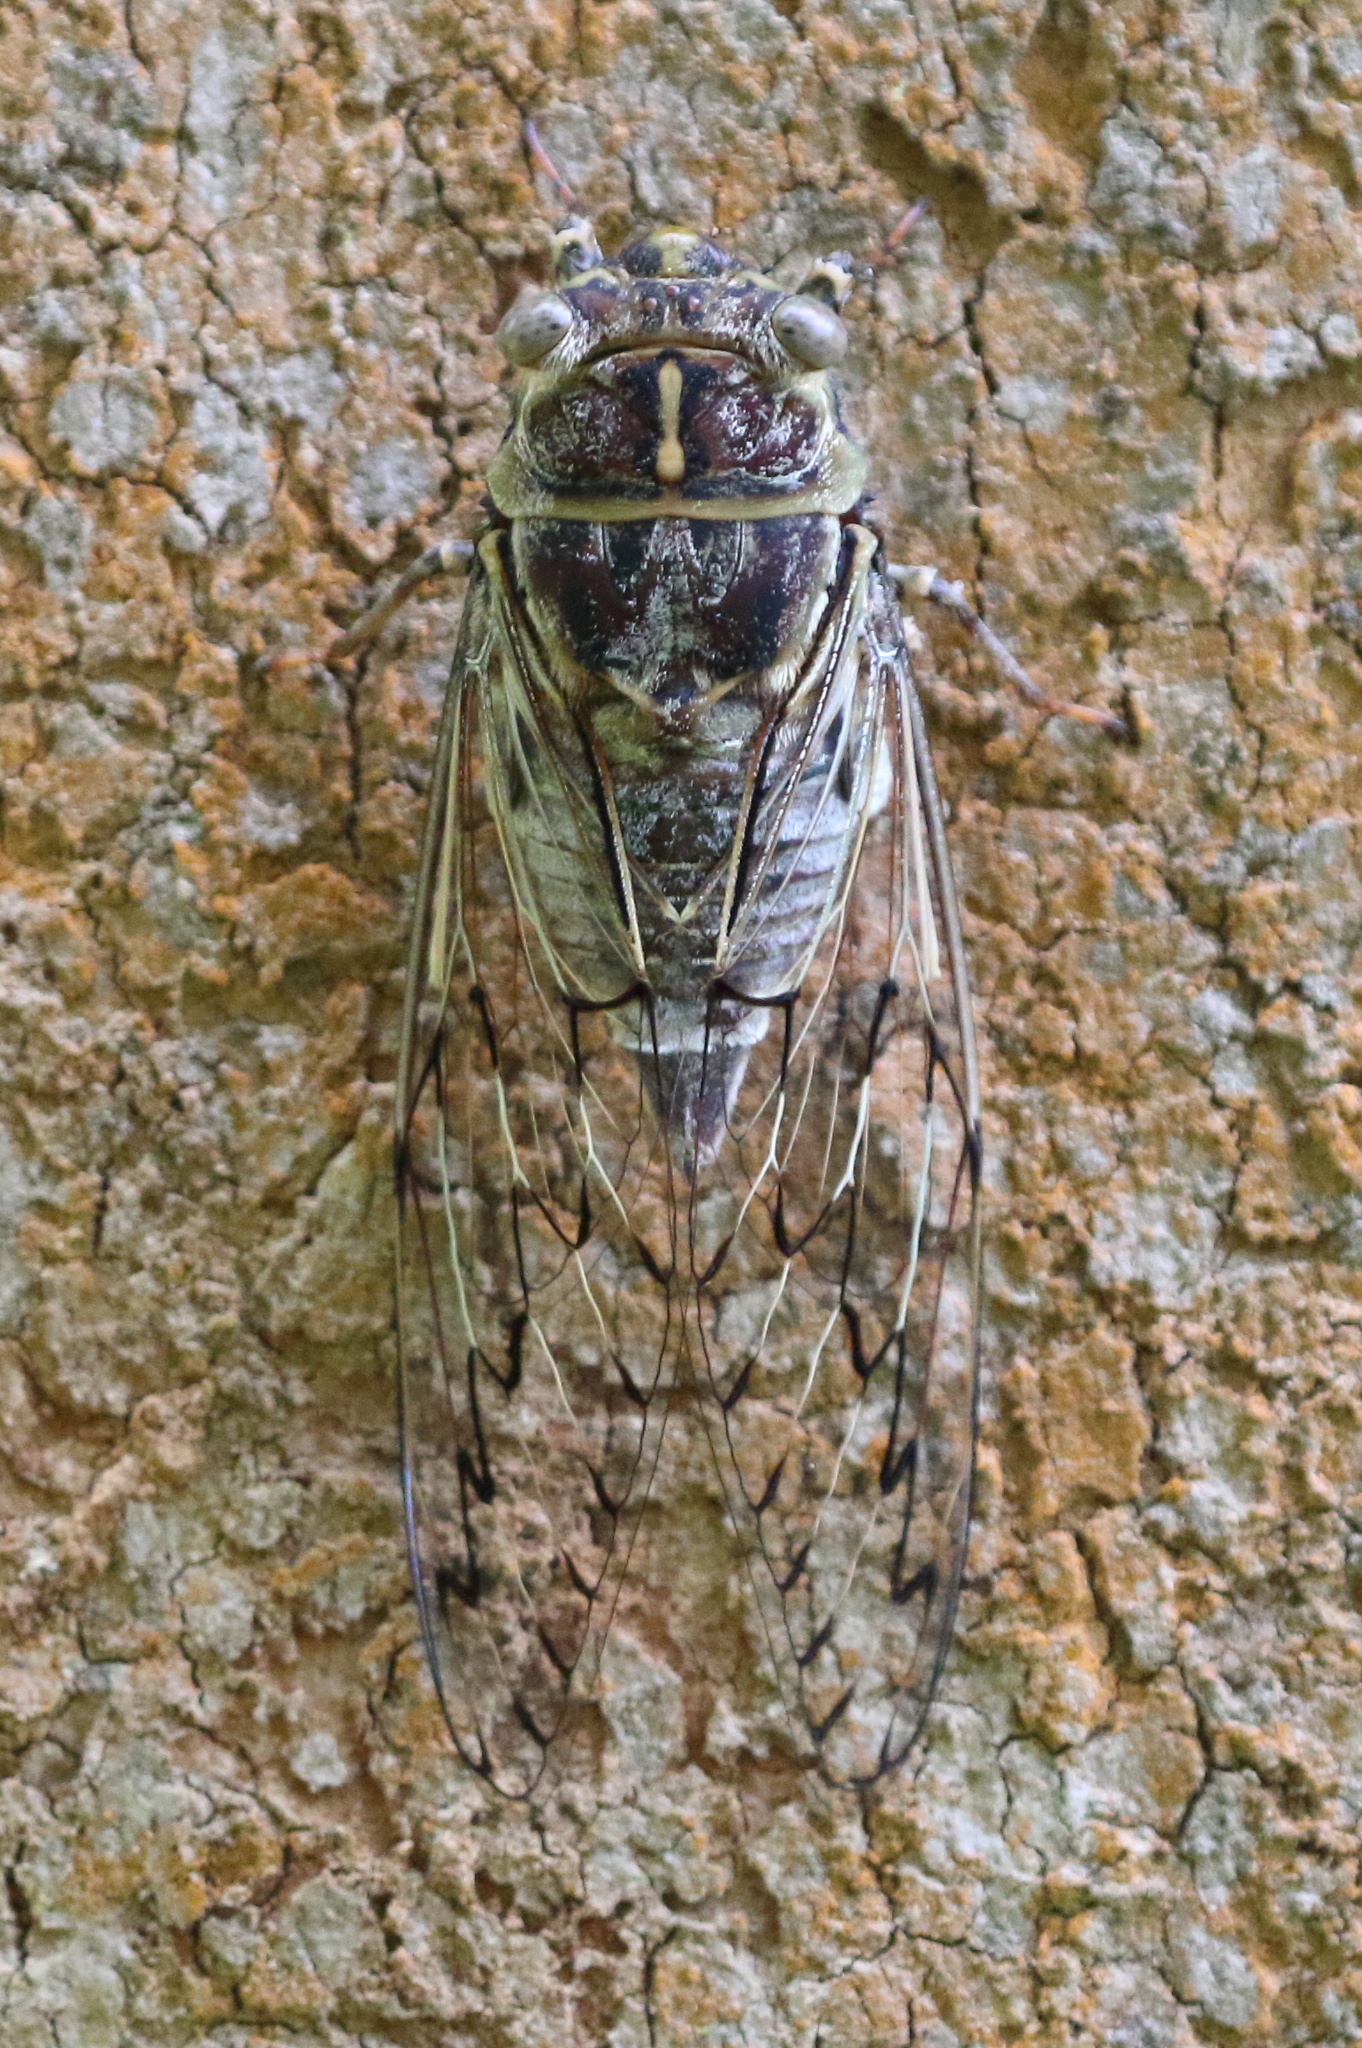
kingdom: Animalia
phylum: Arthropoda
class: Insecta
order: Hemiptera
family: Cicadidae
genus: Henicopsaltria
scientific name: Henicopsaltria eydouxii
